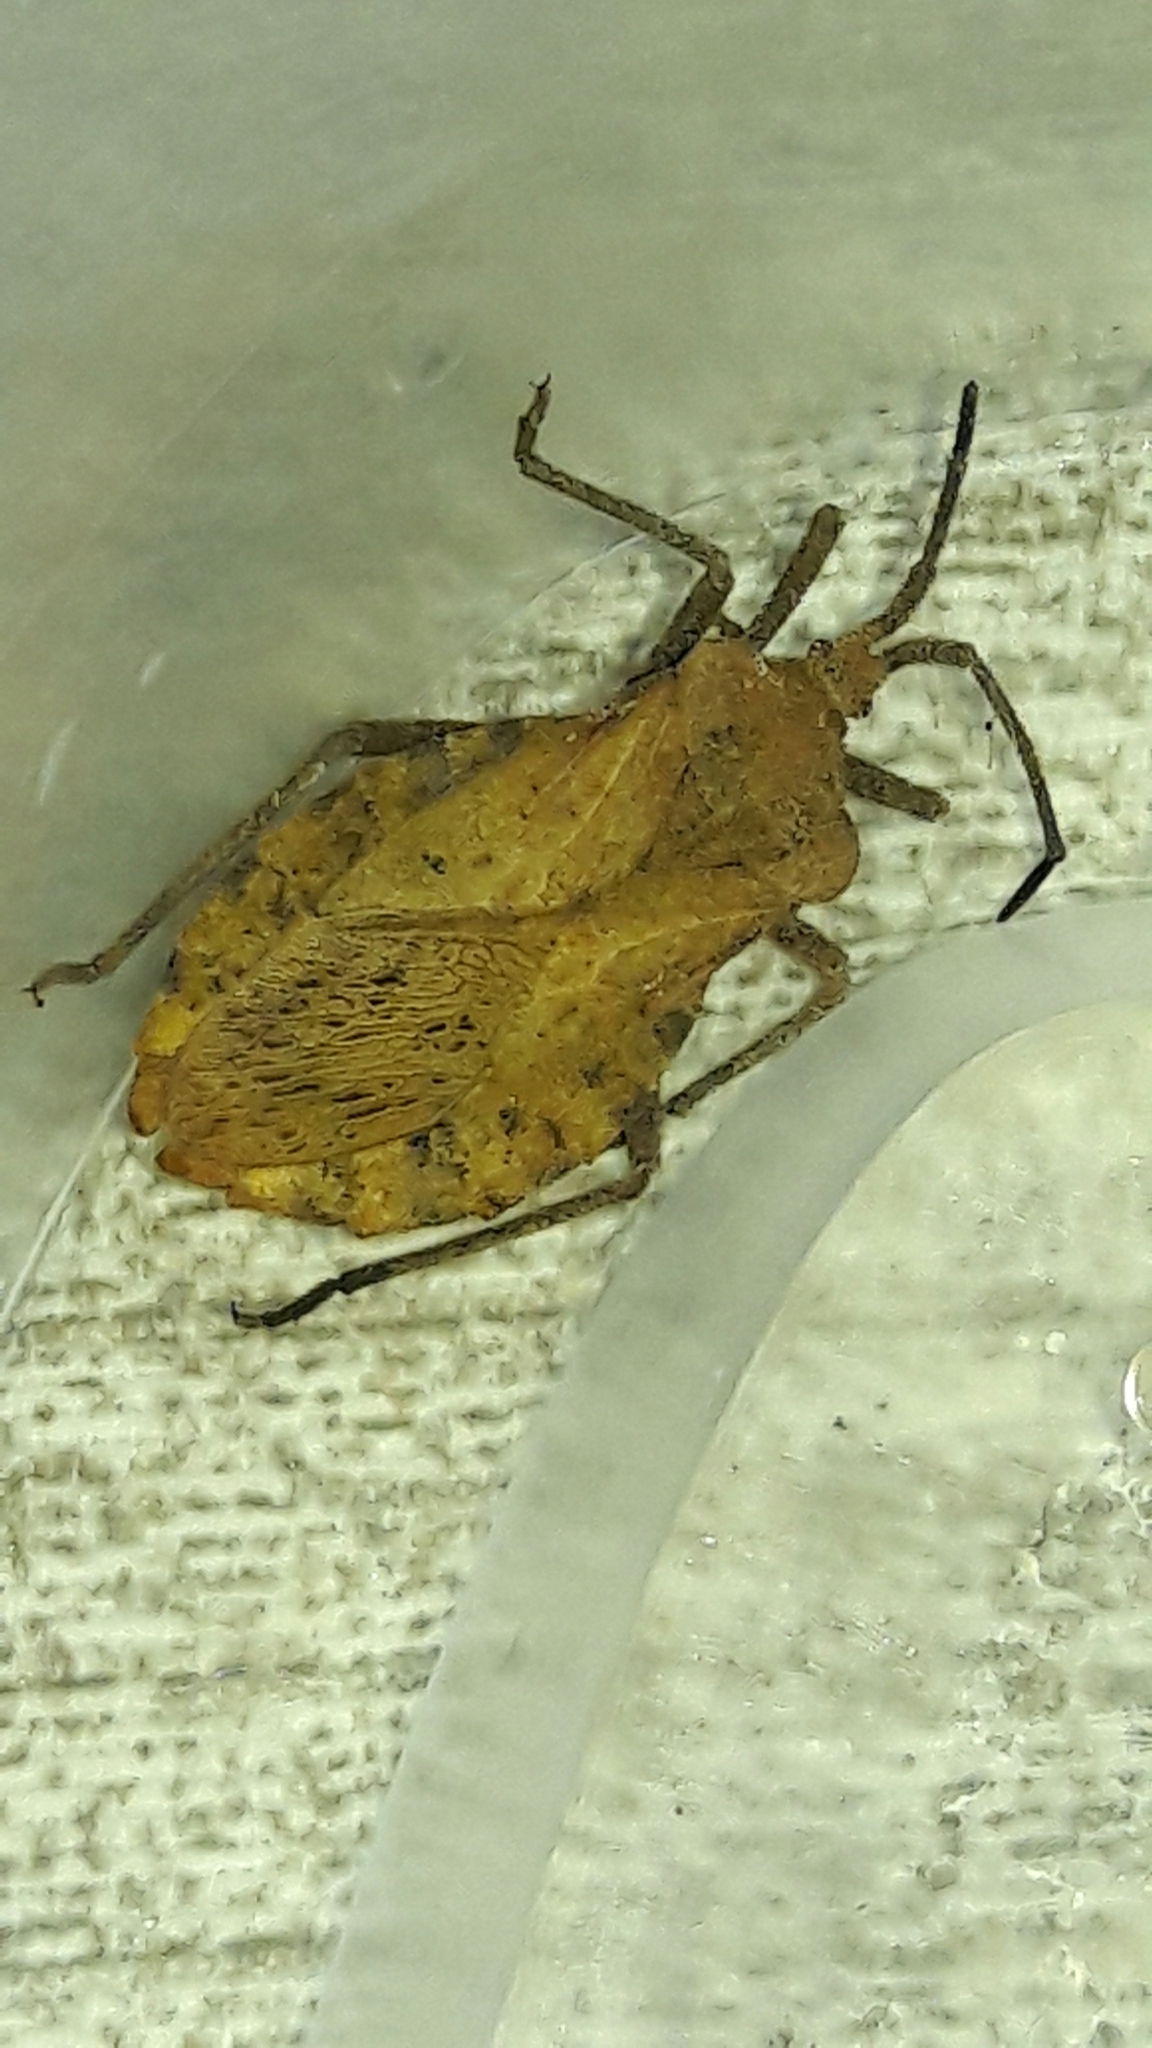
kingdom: Animalia
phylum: Arthropoda
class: Insecta
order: Hemiptera
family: Coreidae
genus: Spartocera
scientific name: Spartocera fusca
